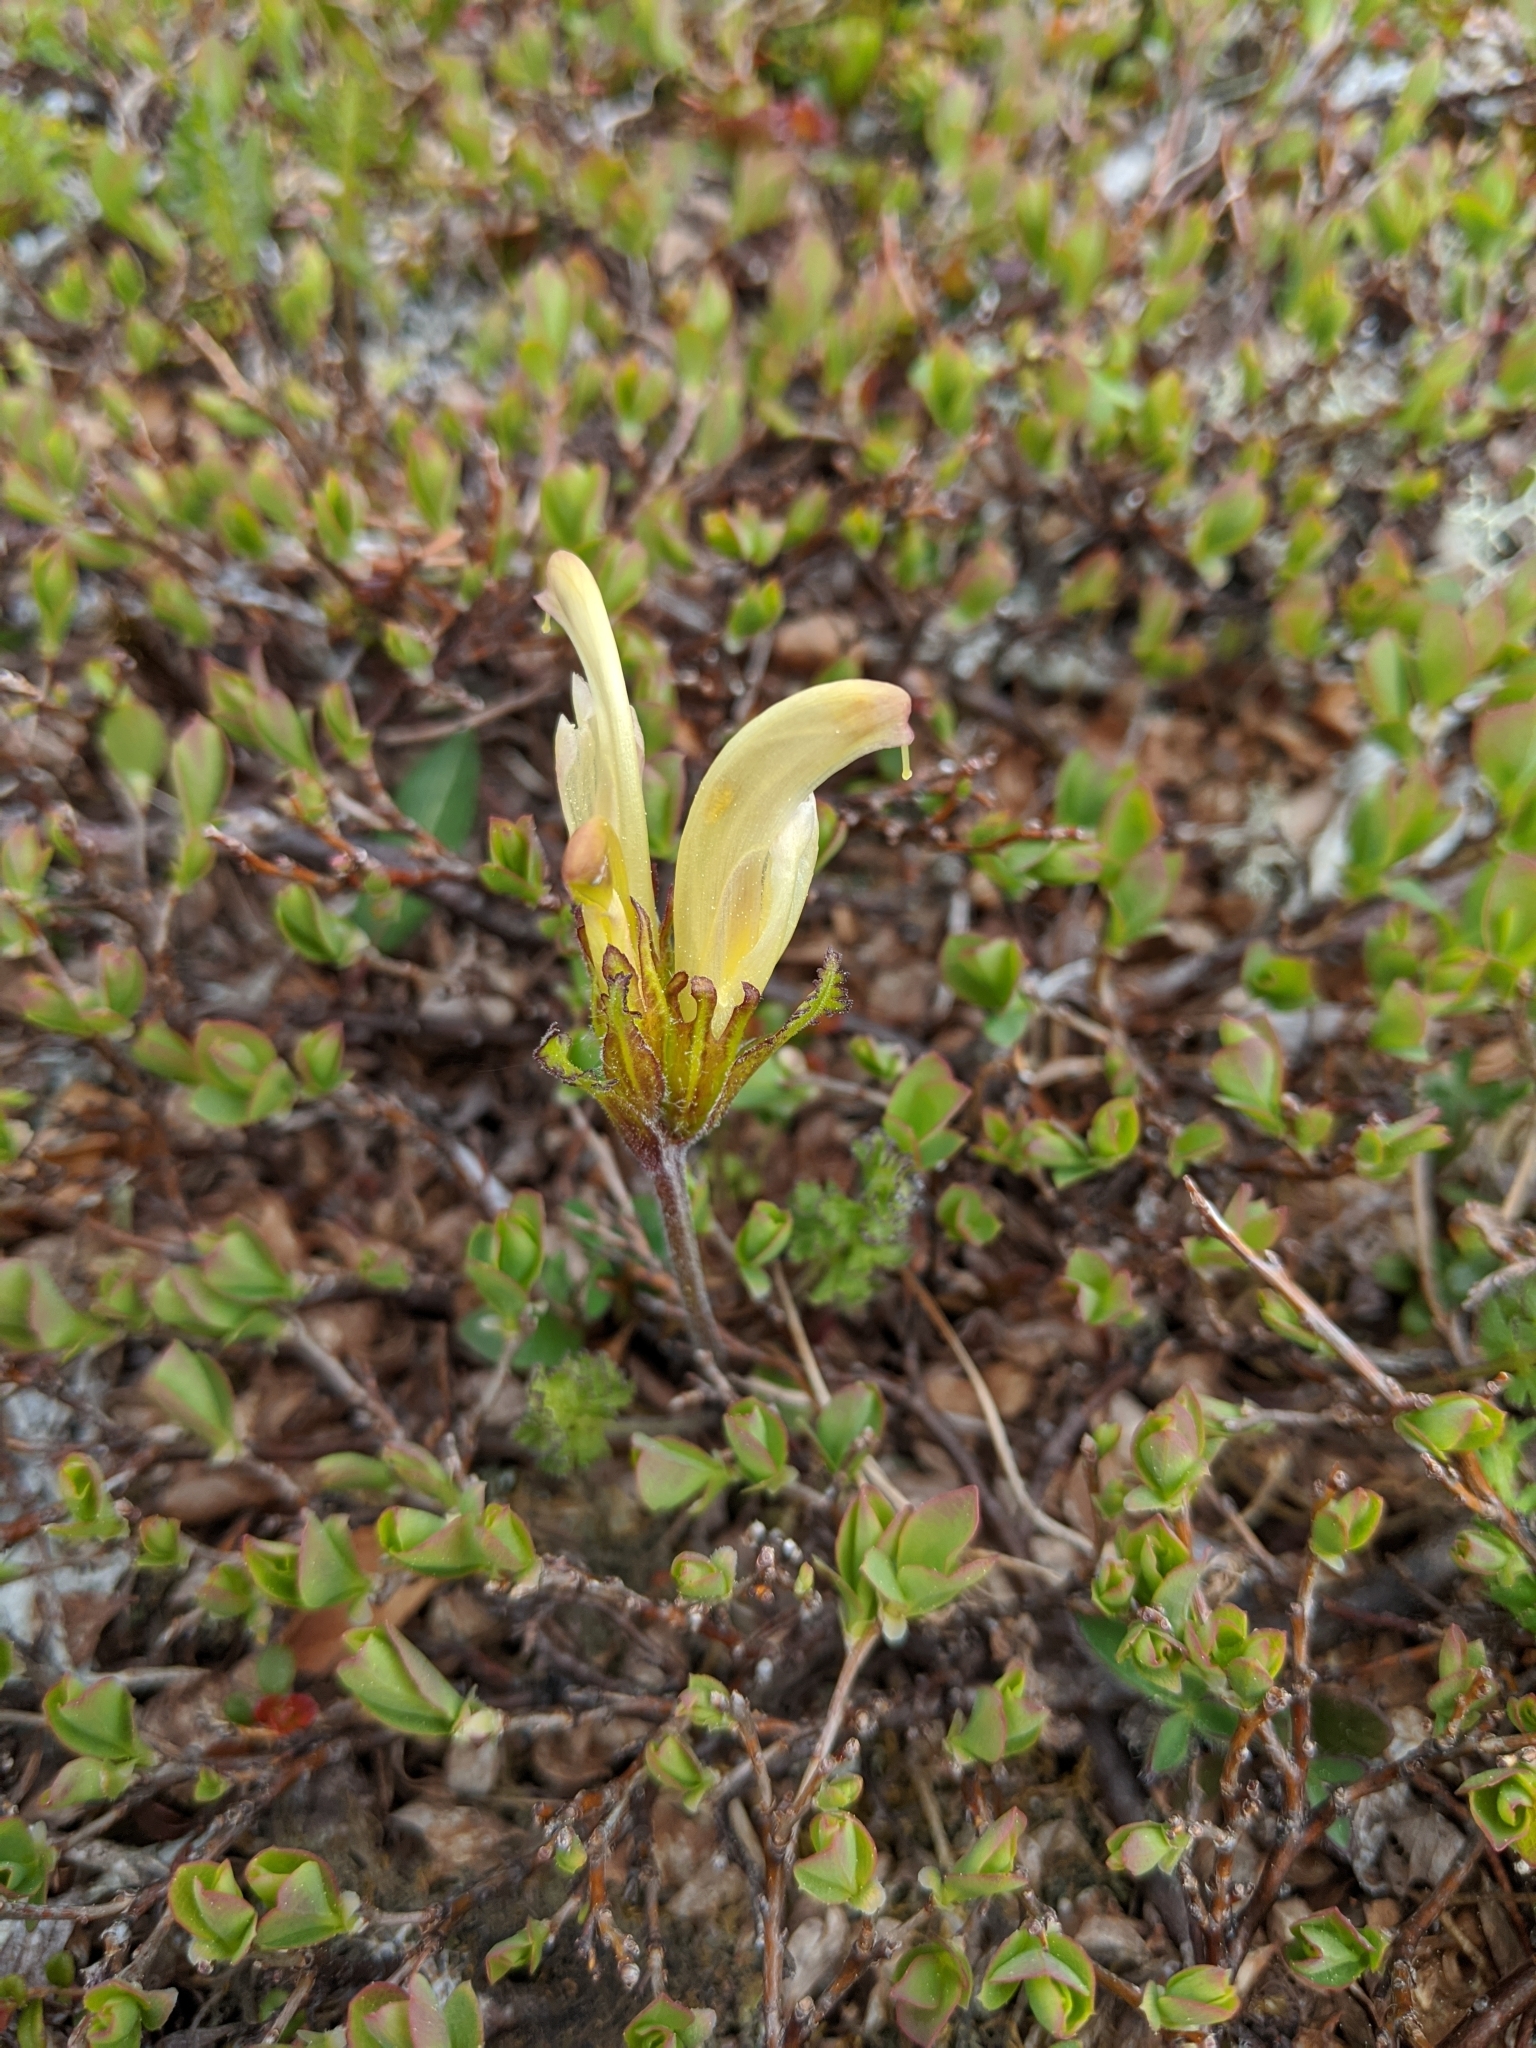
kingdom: Plantae
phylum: Tracheophyta
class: Magnoliopsida
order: Lamiales
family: Orobanchaceae
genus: Pedicularis
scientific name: Pedicularis capitata
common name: Capitate lousewort
